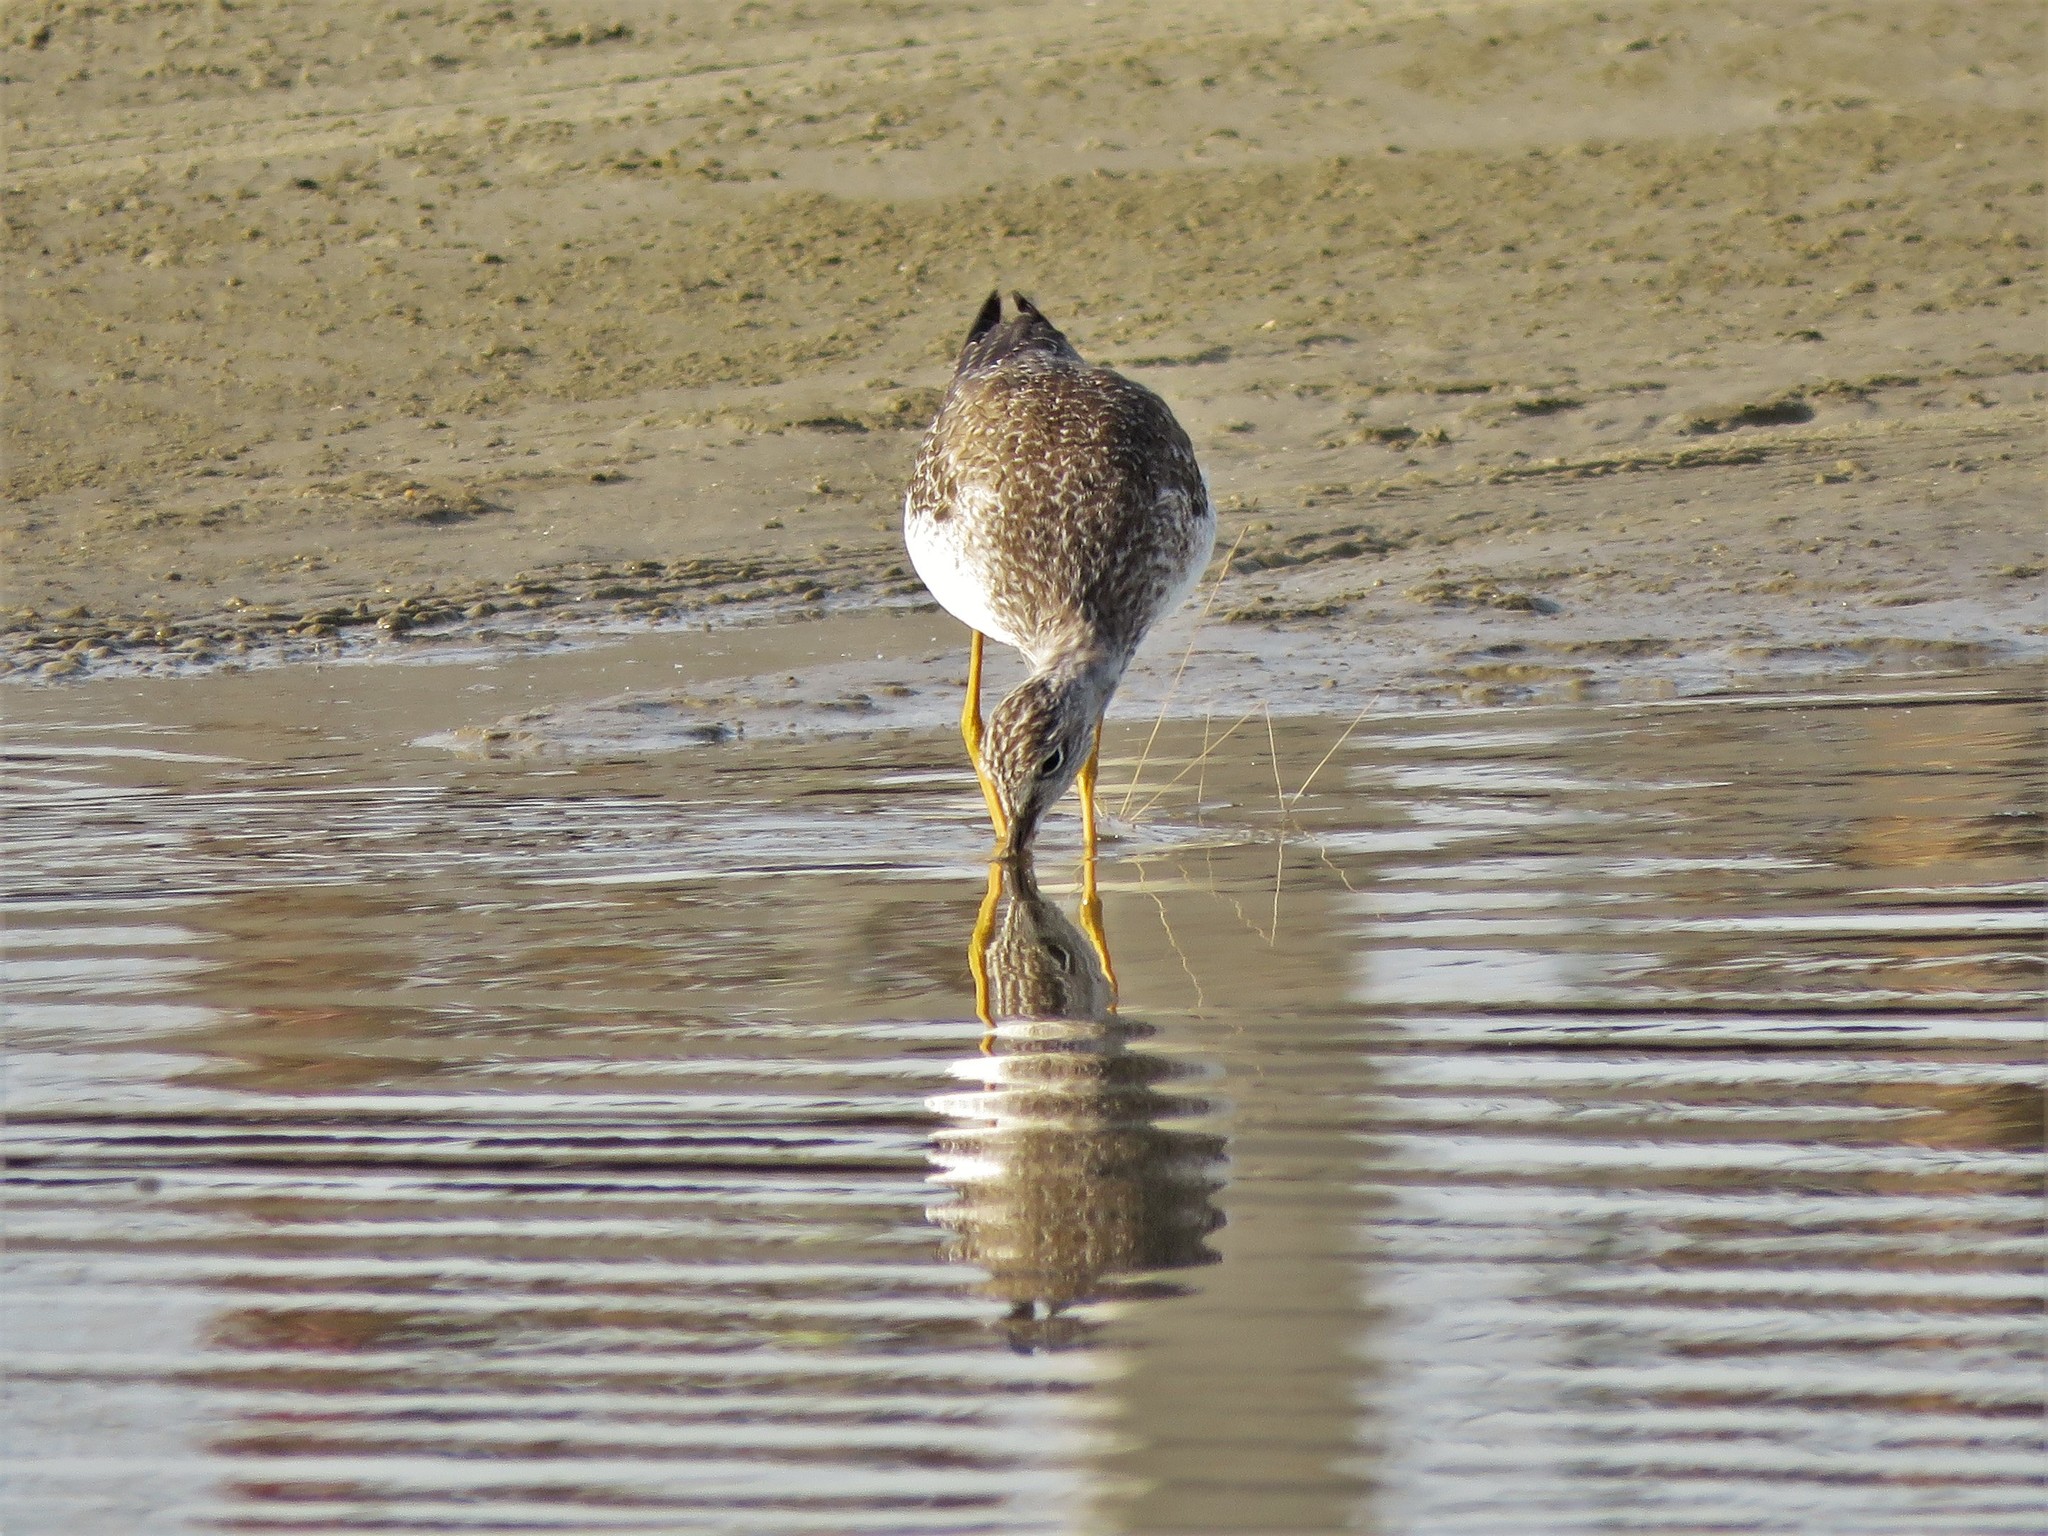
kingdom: Animalia
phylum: Chordata
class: Aves
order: Charadriiformes
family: Scolopacidae
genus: Tringa
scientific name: Tringa melanoleuca
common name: Greater yellowlegs
